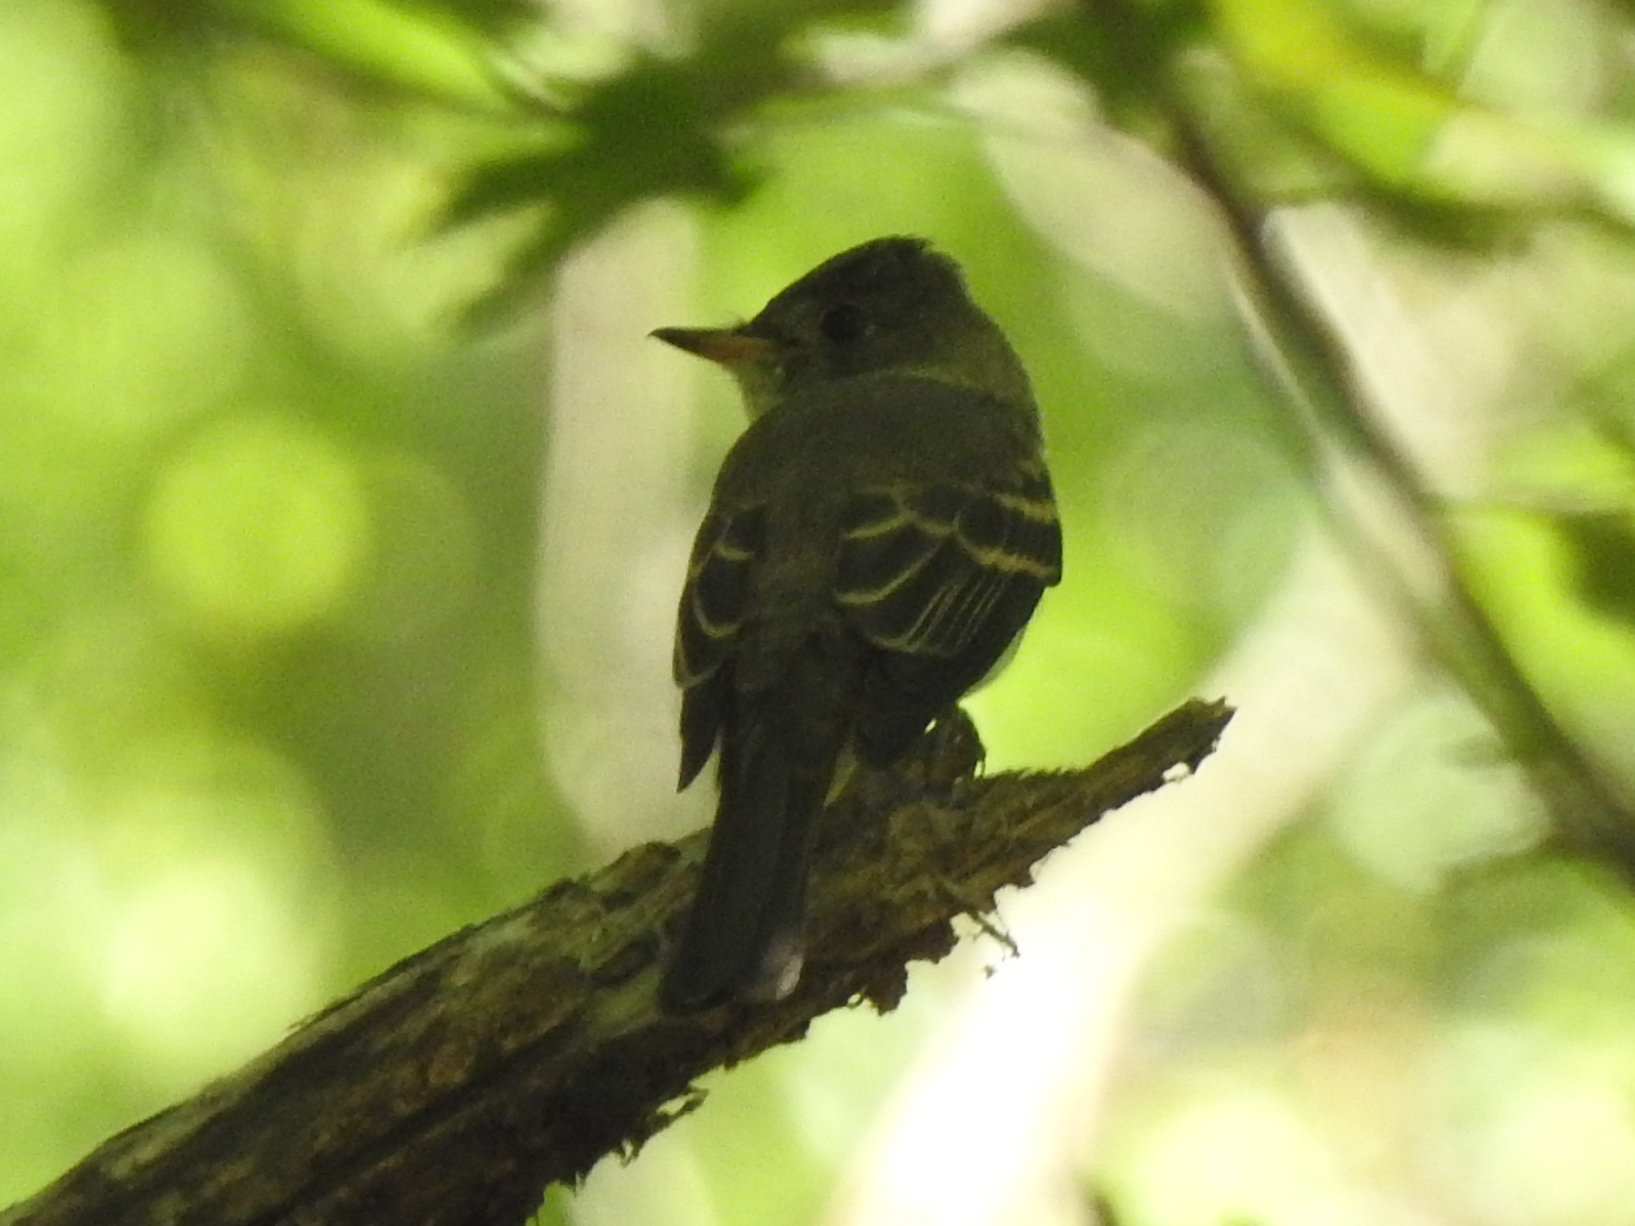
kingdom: Animalia
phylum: Chordata
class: Aves
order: Passeriformes
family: Tyrannidae
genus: Contopus
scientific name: Contopus virens
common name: Eastern wood-pewee
